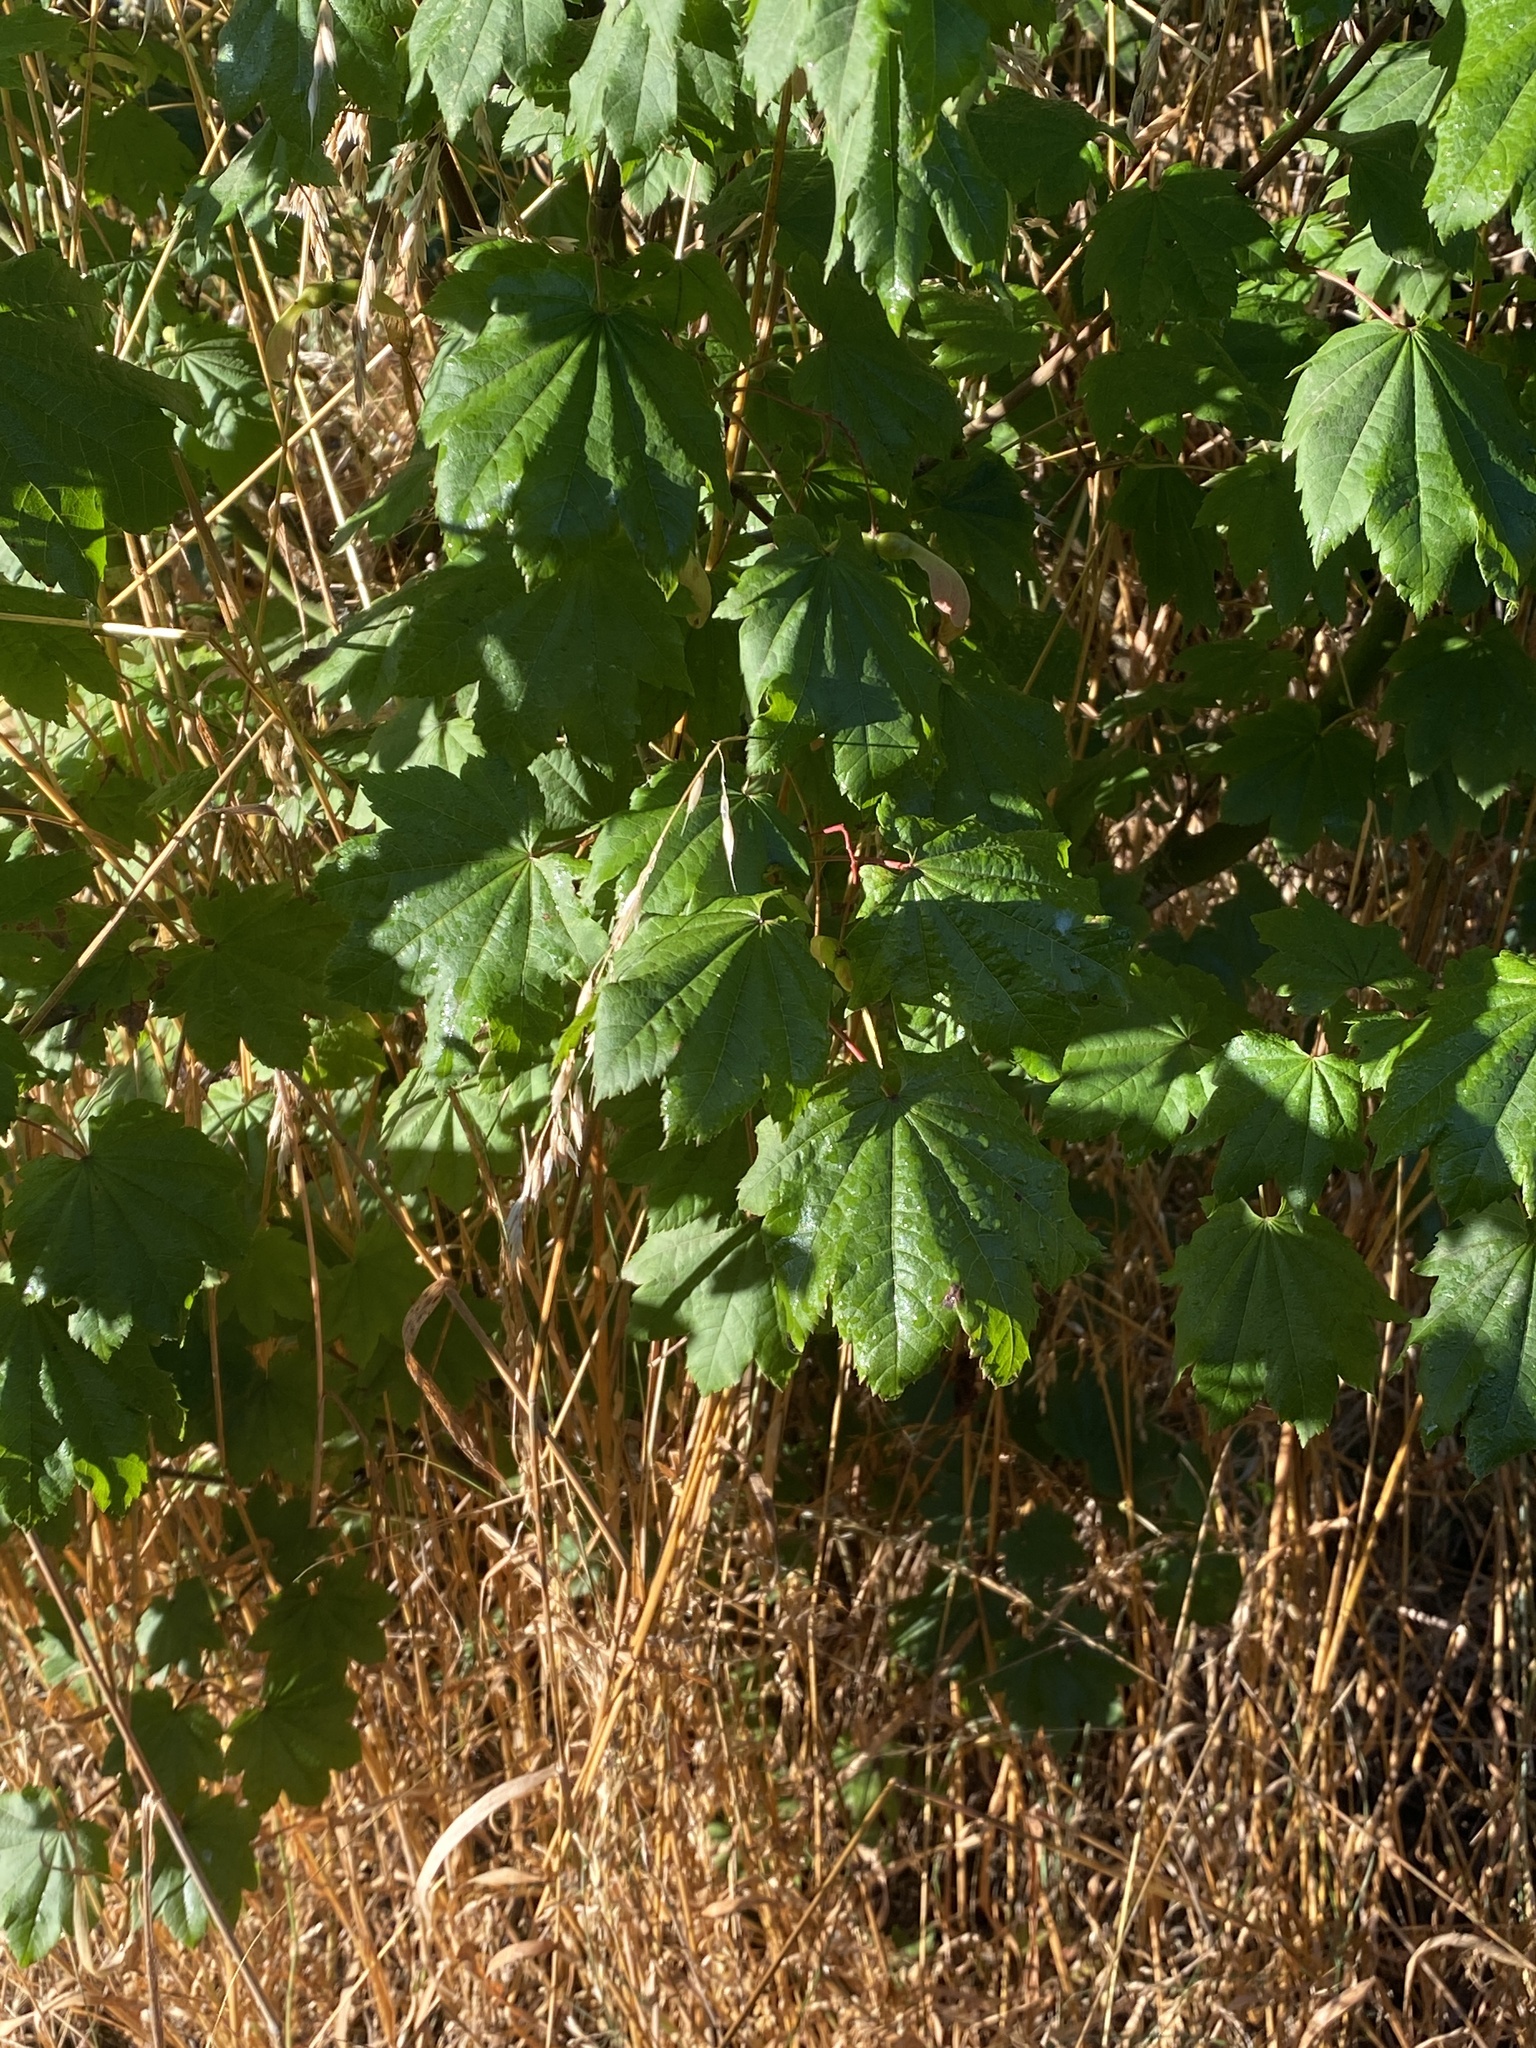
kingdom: Plantae
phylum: Tracheophyta
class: Magnoliopsida
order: Sapindales
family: Sapindaceae
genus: Acer
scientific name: Acer circinatum
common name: Vine maple
